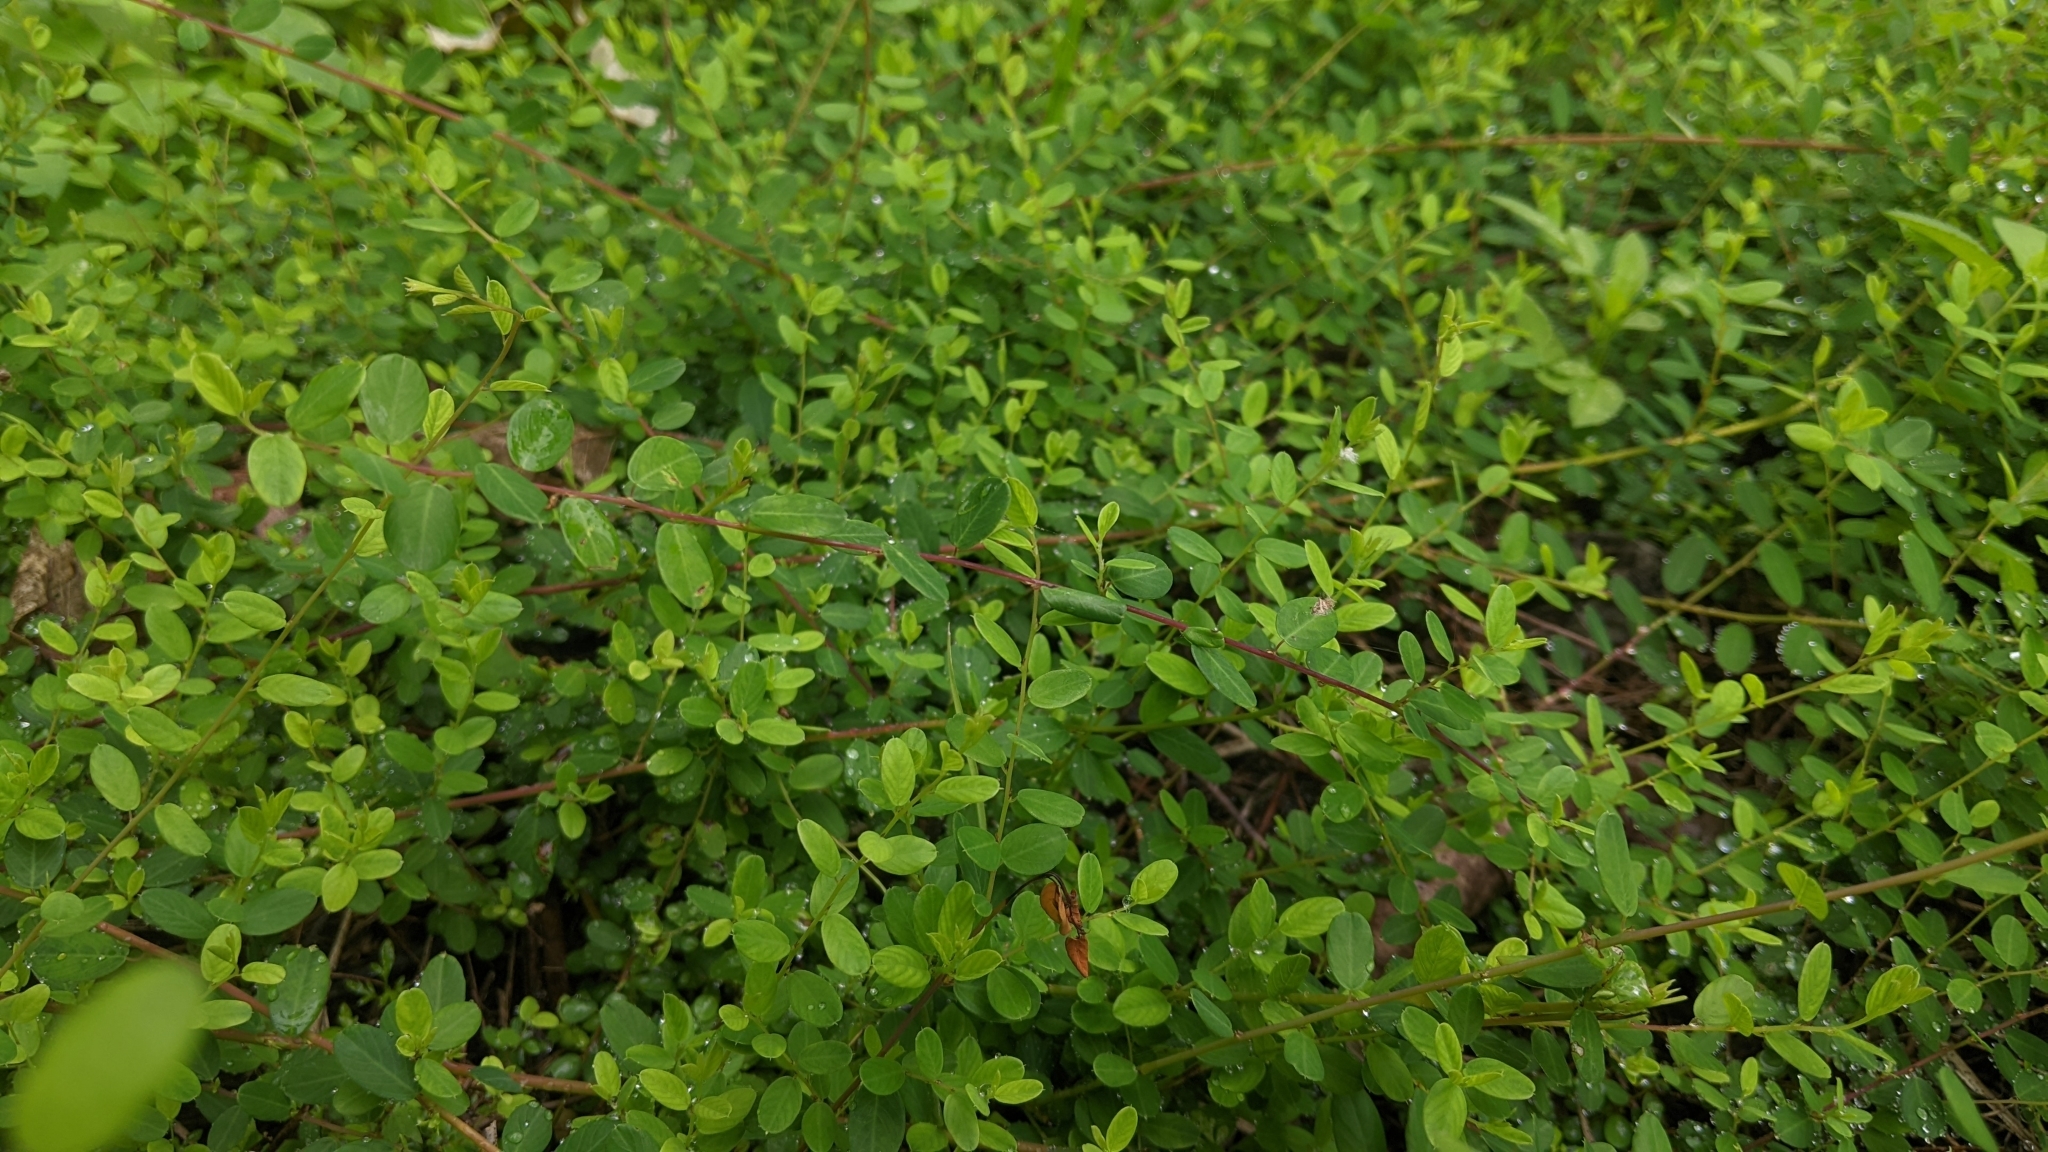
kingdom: Plantae
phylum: Tracheophyta
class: Magnoliopsida
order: Rosales
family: Rhamnaceae
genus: Berchemia
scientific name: Berchemia lineata
